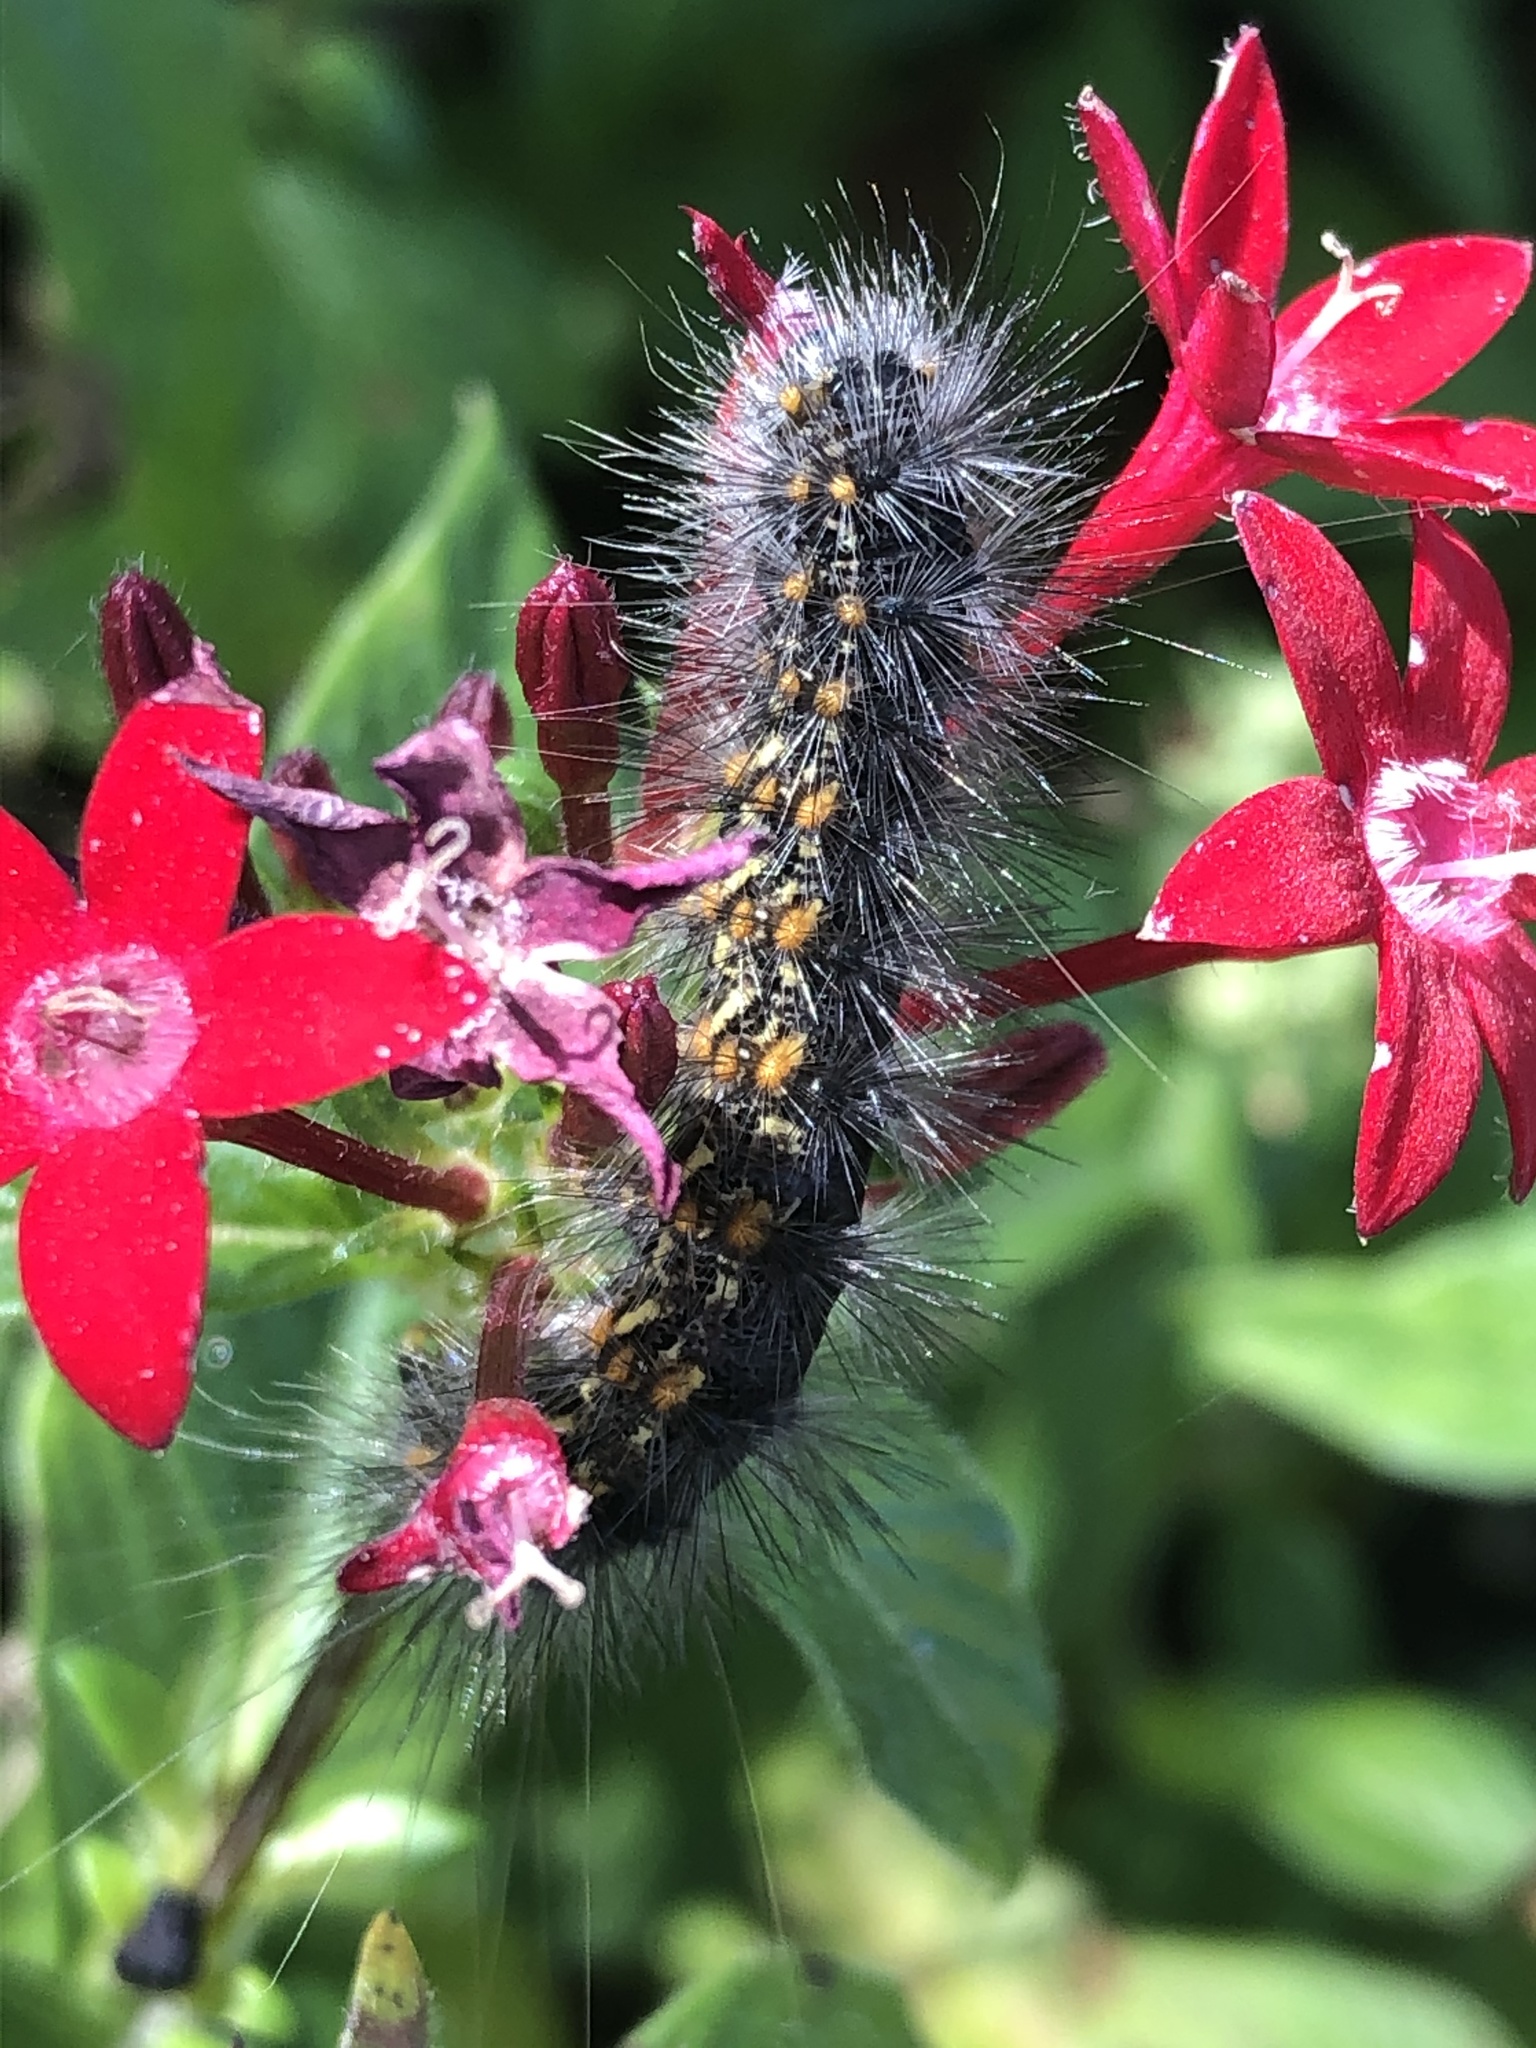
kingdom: Animalia
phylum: Arthropoda
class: Insecta
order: Lepidoptera
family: Erebidae
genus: Estigmene
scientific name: Estigmene acrea
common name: Salt marsh moth
